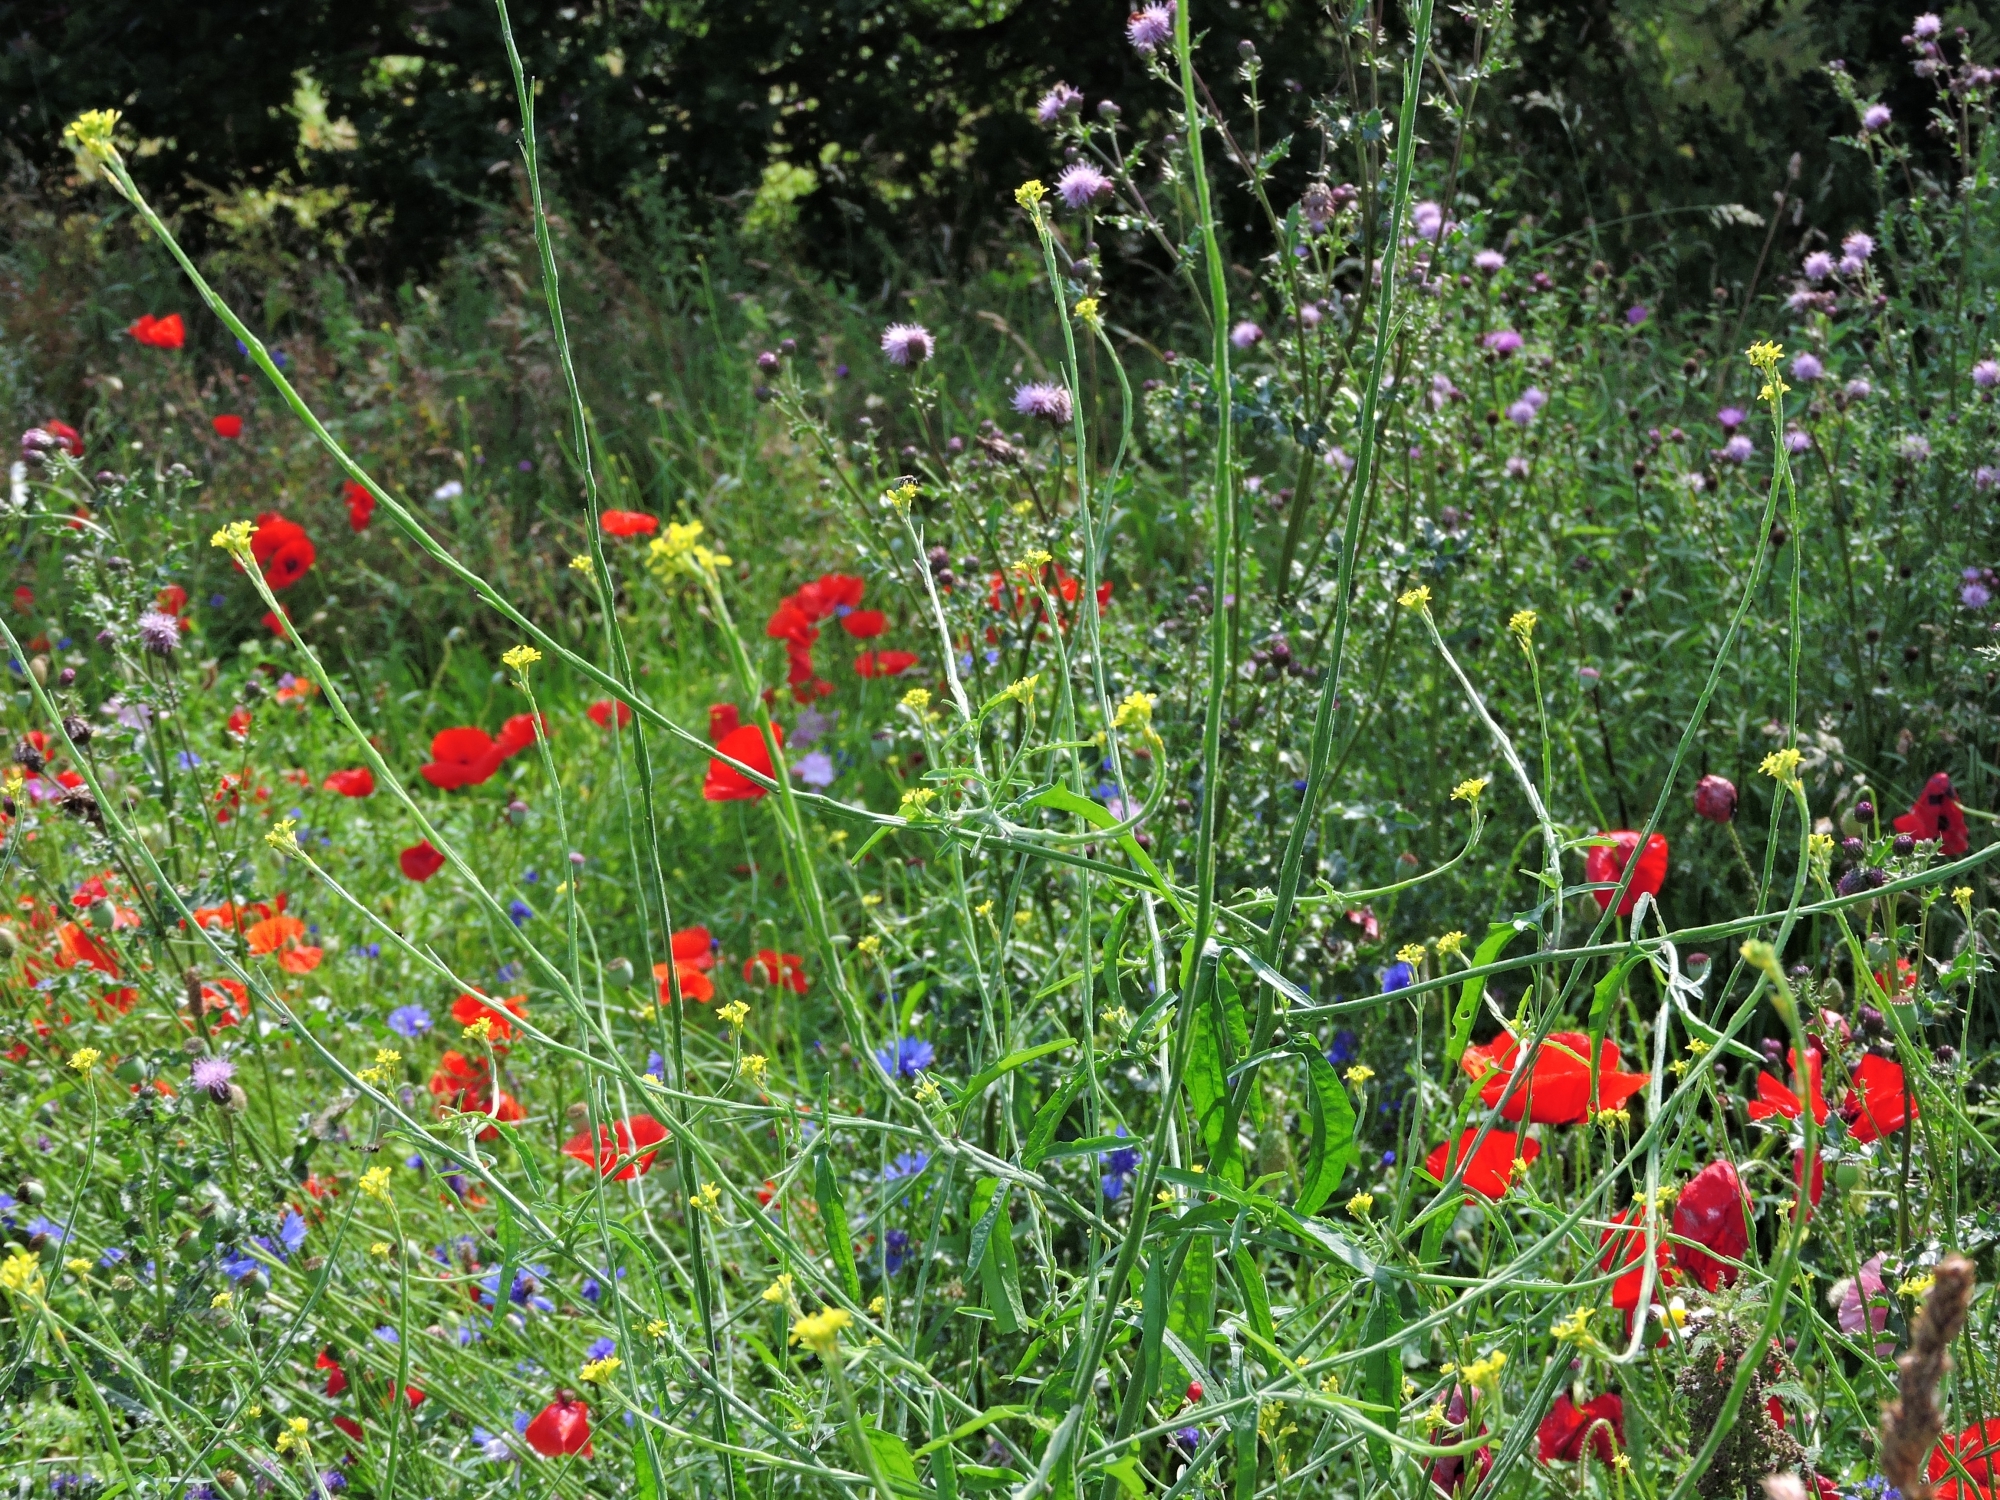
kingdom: Plantae
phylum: Tracheophyta
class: Magnoliopsida
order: Brassicales
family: Brassicaceae
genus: Sisymbrium
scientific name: Sisymbrium officinale
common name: Hedge mustard
